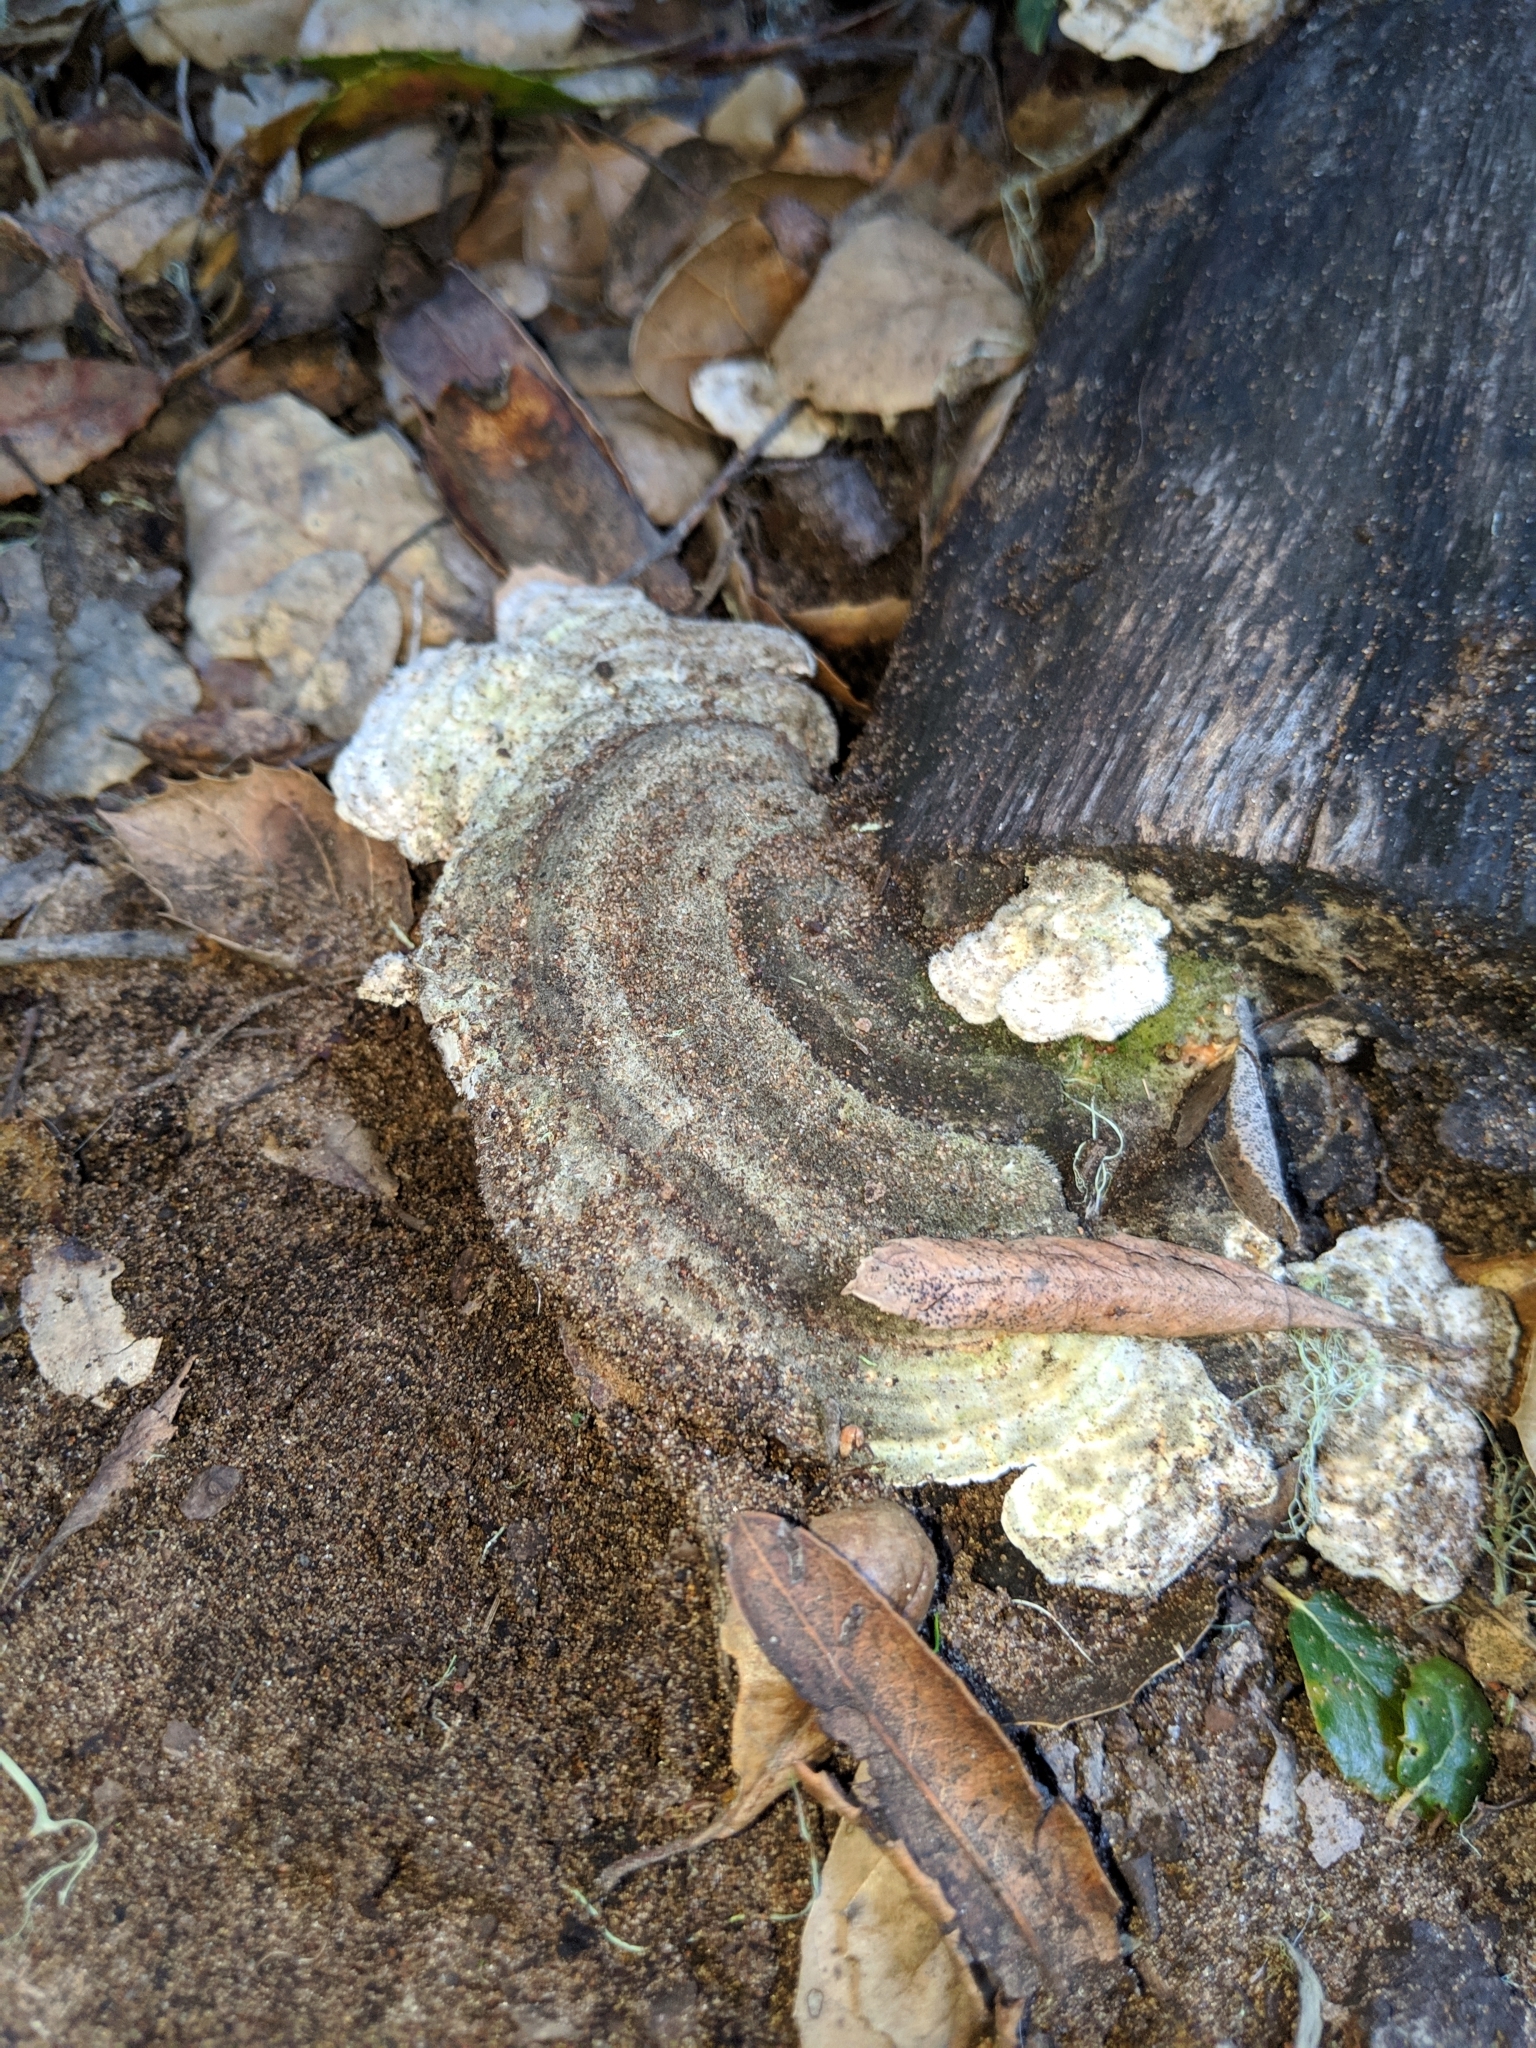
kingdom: Fungi
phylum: Basidiomycota
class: Agaricomycetes
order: Polyporales
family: Polyporaceae
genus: Lenzites
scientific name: Lenzites betulinus
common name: Birch mazegill
